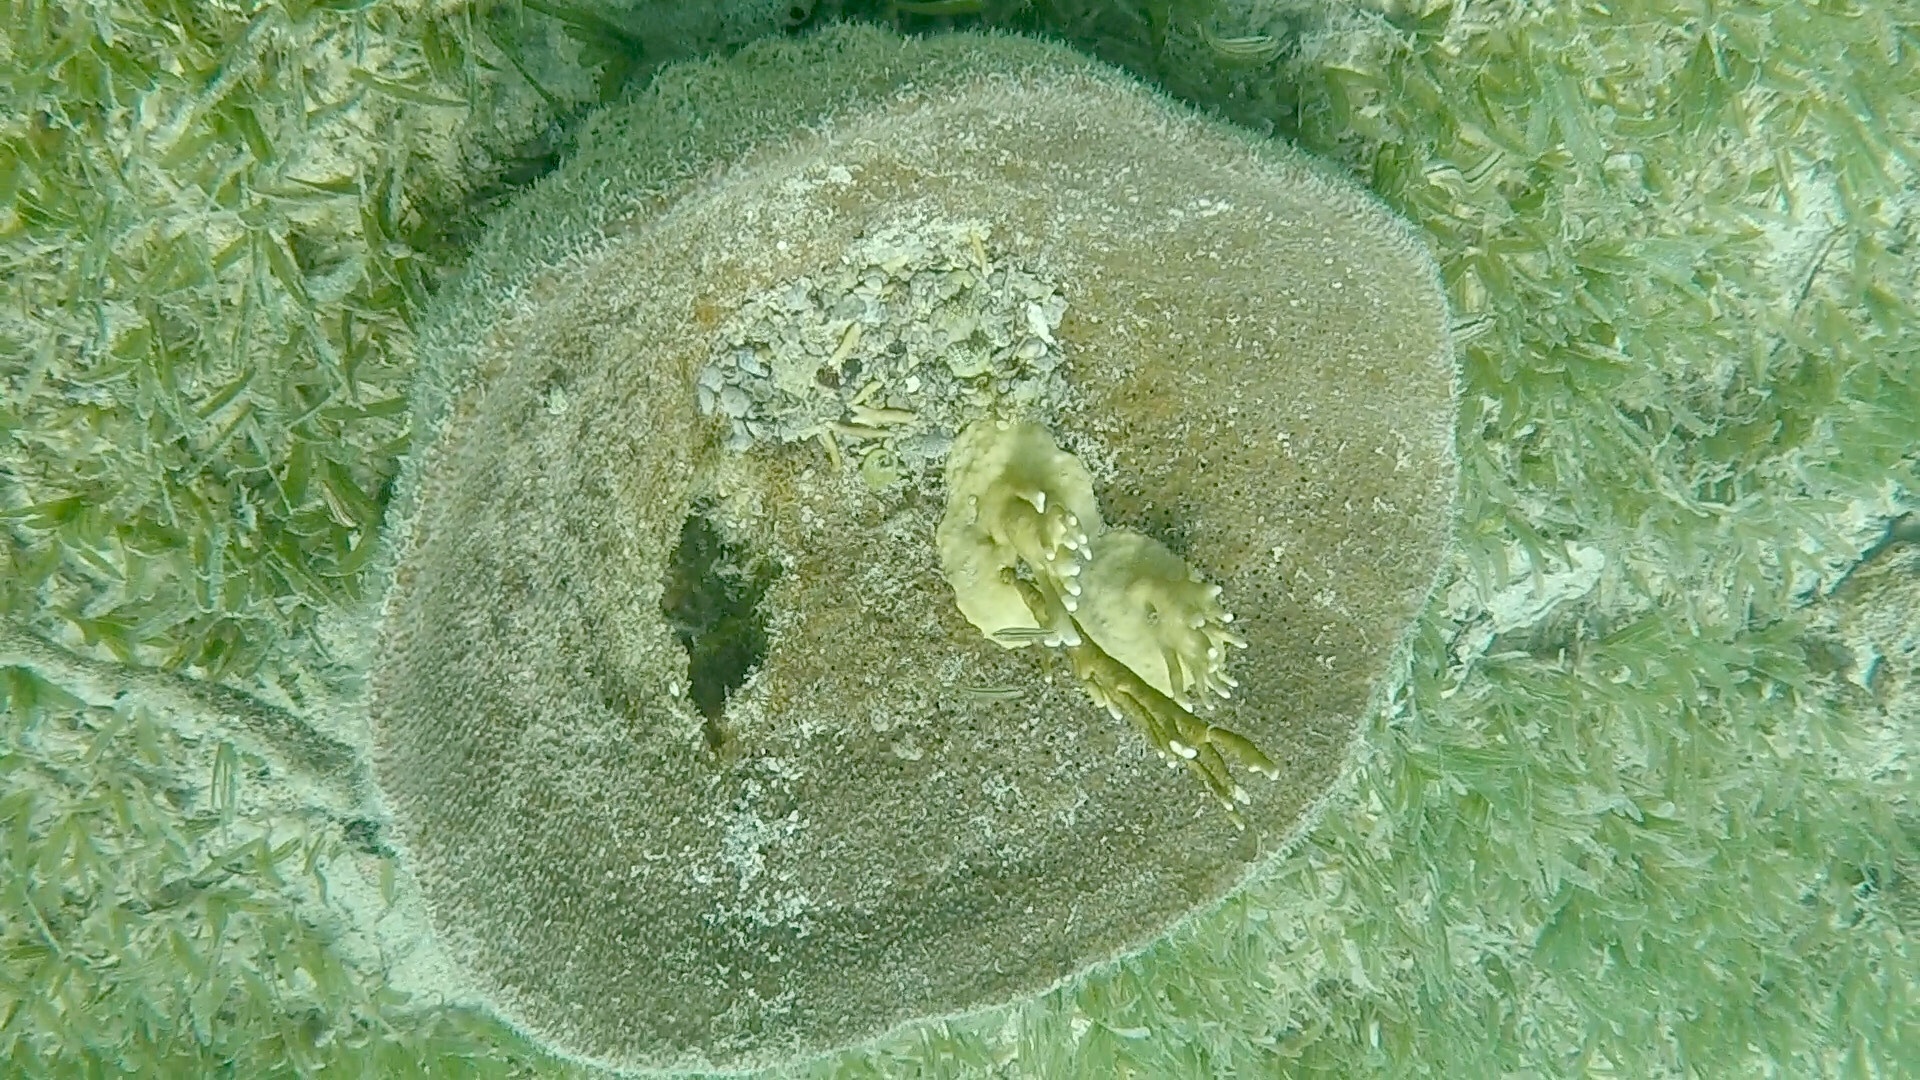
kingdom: Animalia
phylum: Porifera
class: Demospongiae
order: Dictyoceratida
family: Irciniidae
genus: Ircinia
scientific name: Ircinia campana
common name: Vase sponge
